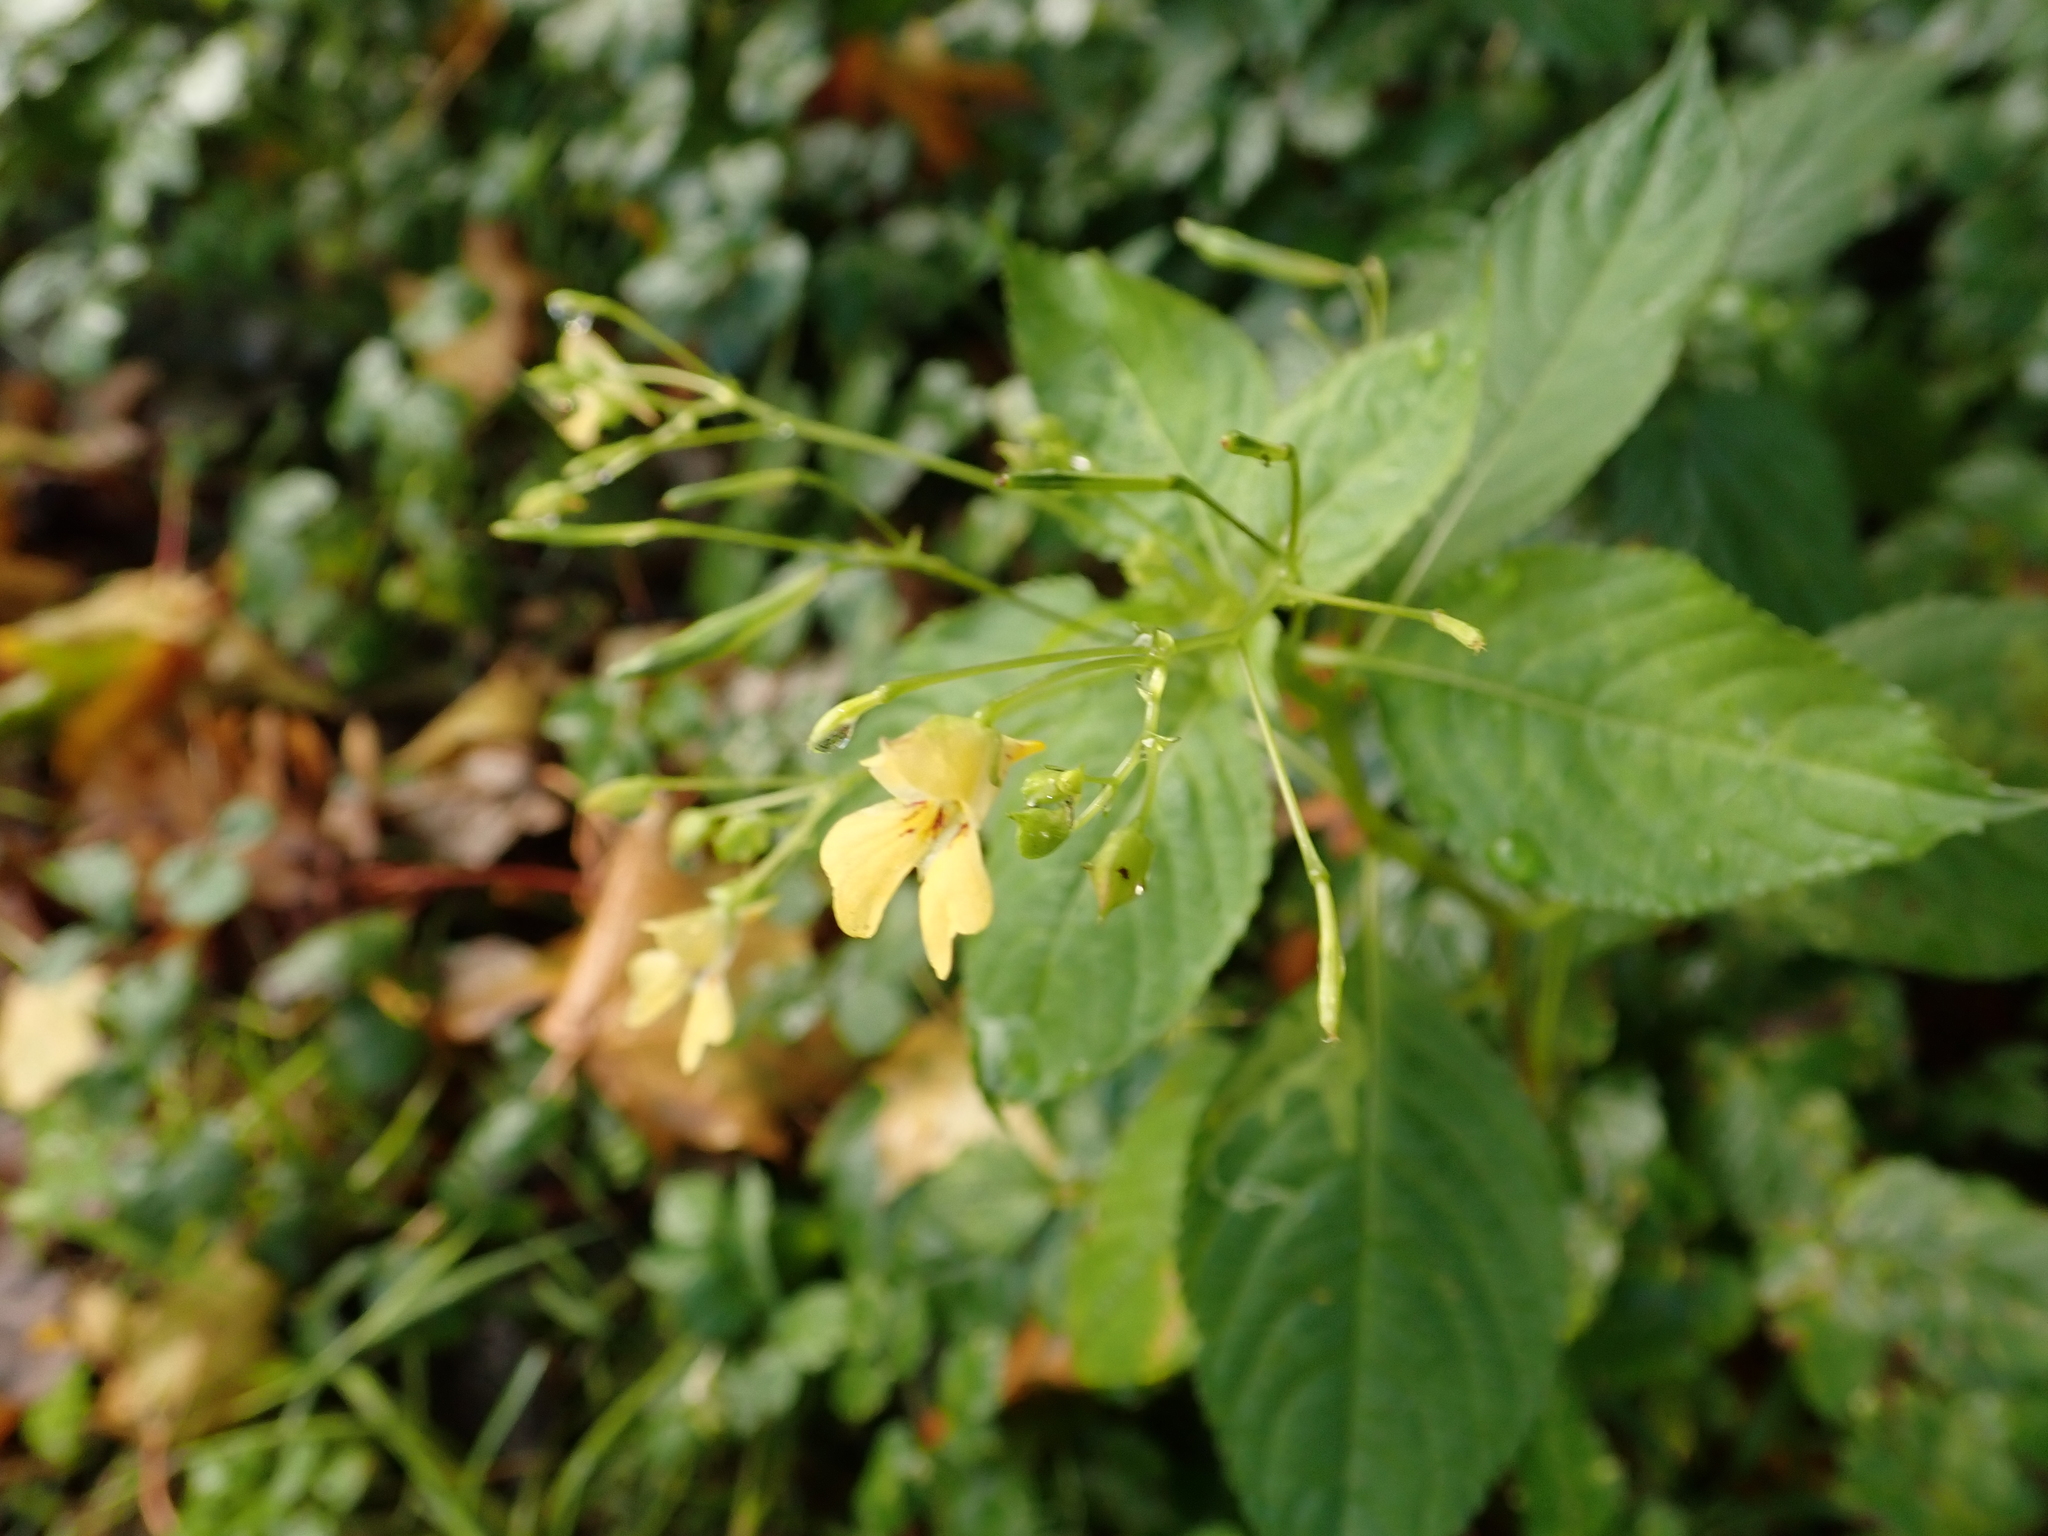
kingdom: Plantae
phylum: Tracheophyta
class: Magnoliopsida
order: Ericales
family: Balsaminaceae
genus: Impatiens
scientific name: Impatiens parviflora
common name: Small balsam
